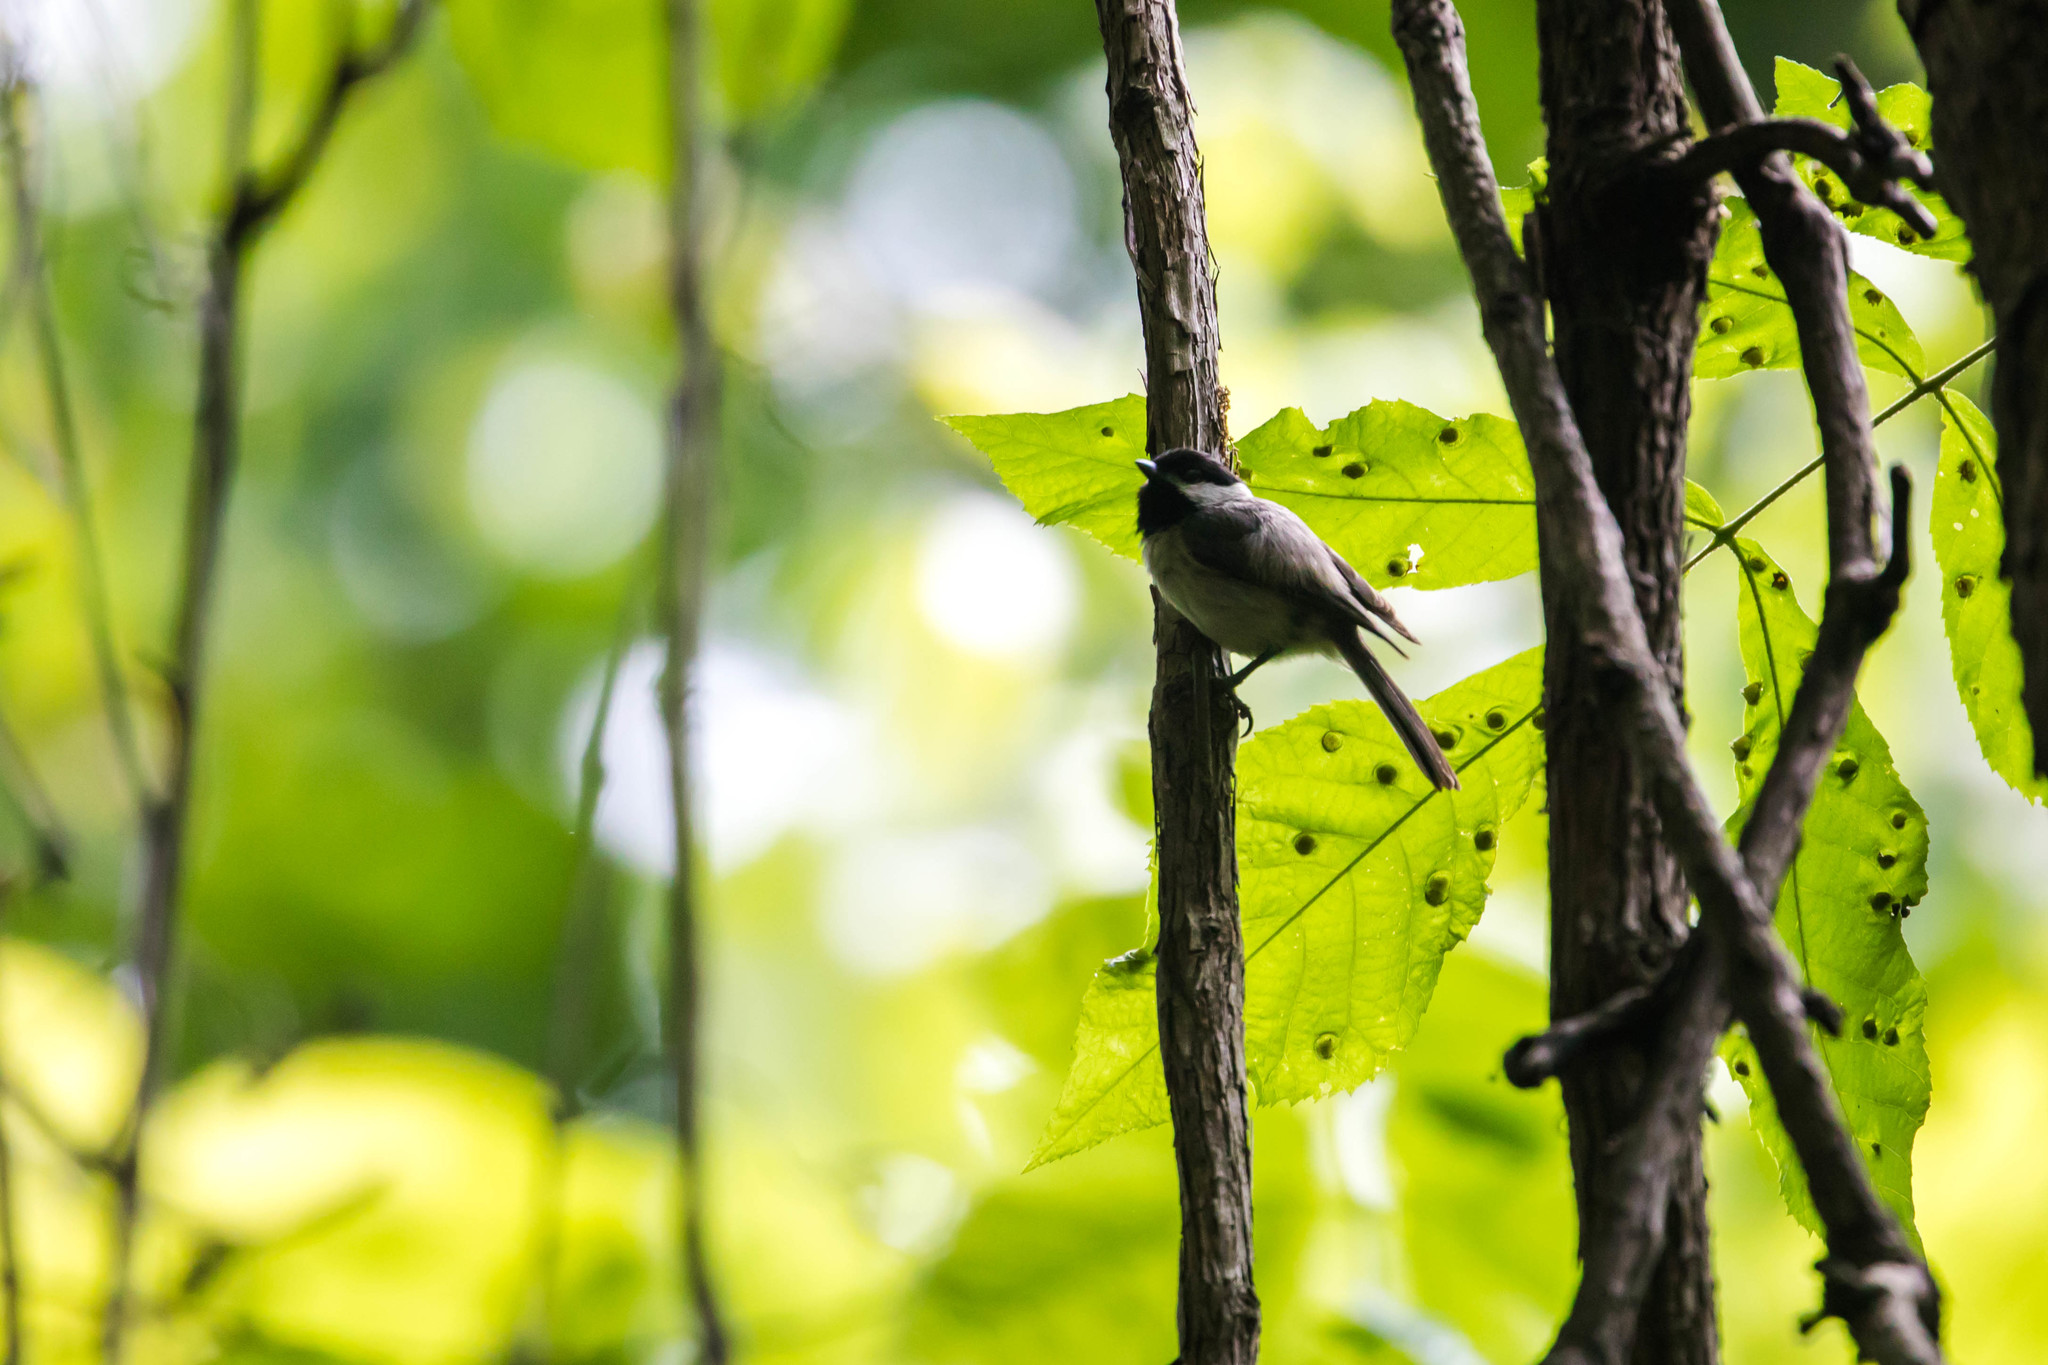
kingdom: Animalia
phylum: Chordata
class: Aves
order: Passeriformes
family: Paridae
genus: Poecile
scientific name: Poecile carolinensis
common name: Carolina chickadee
